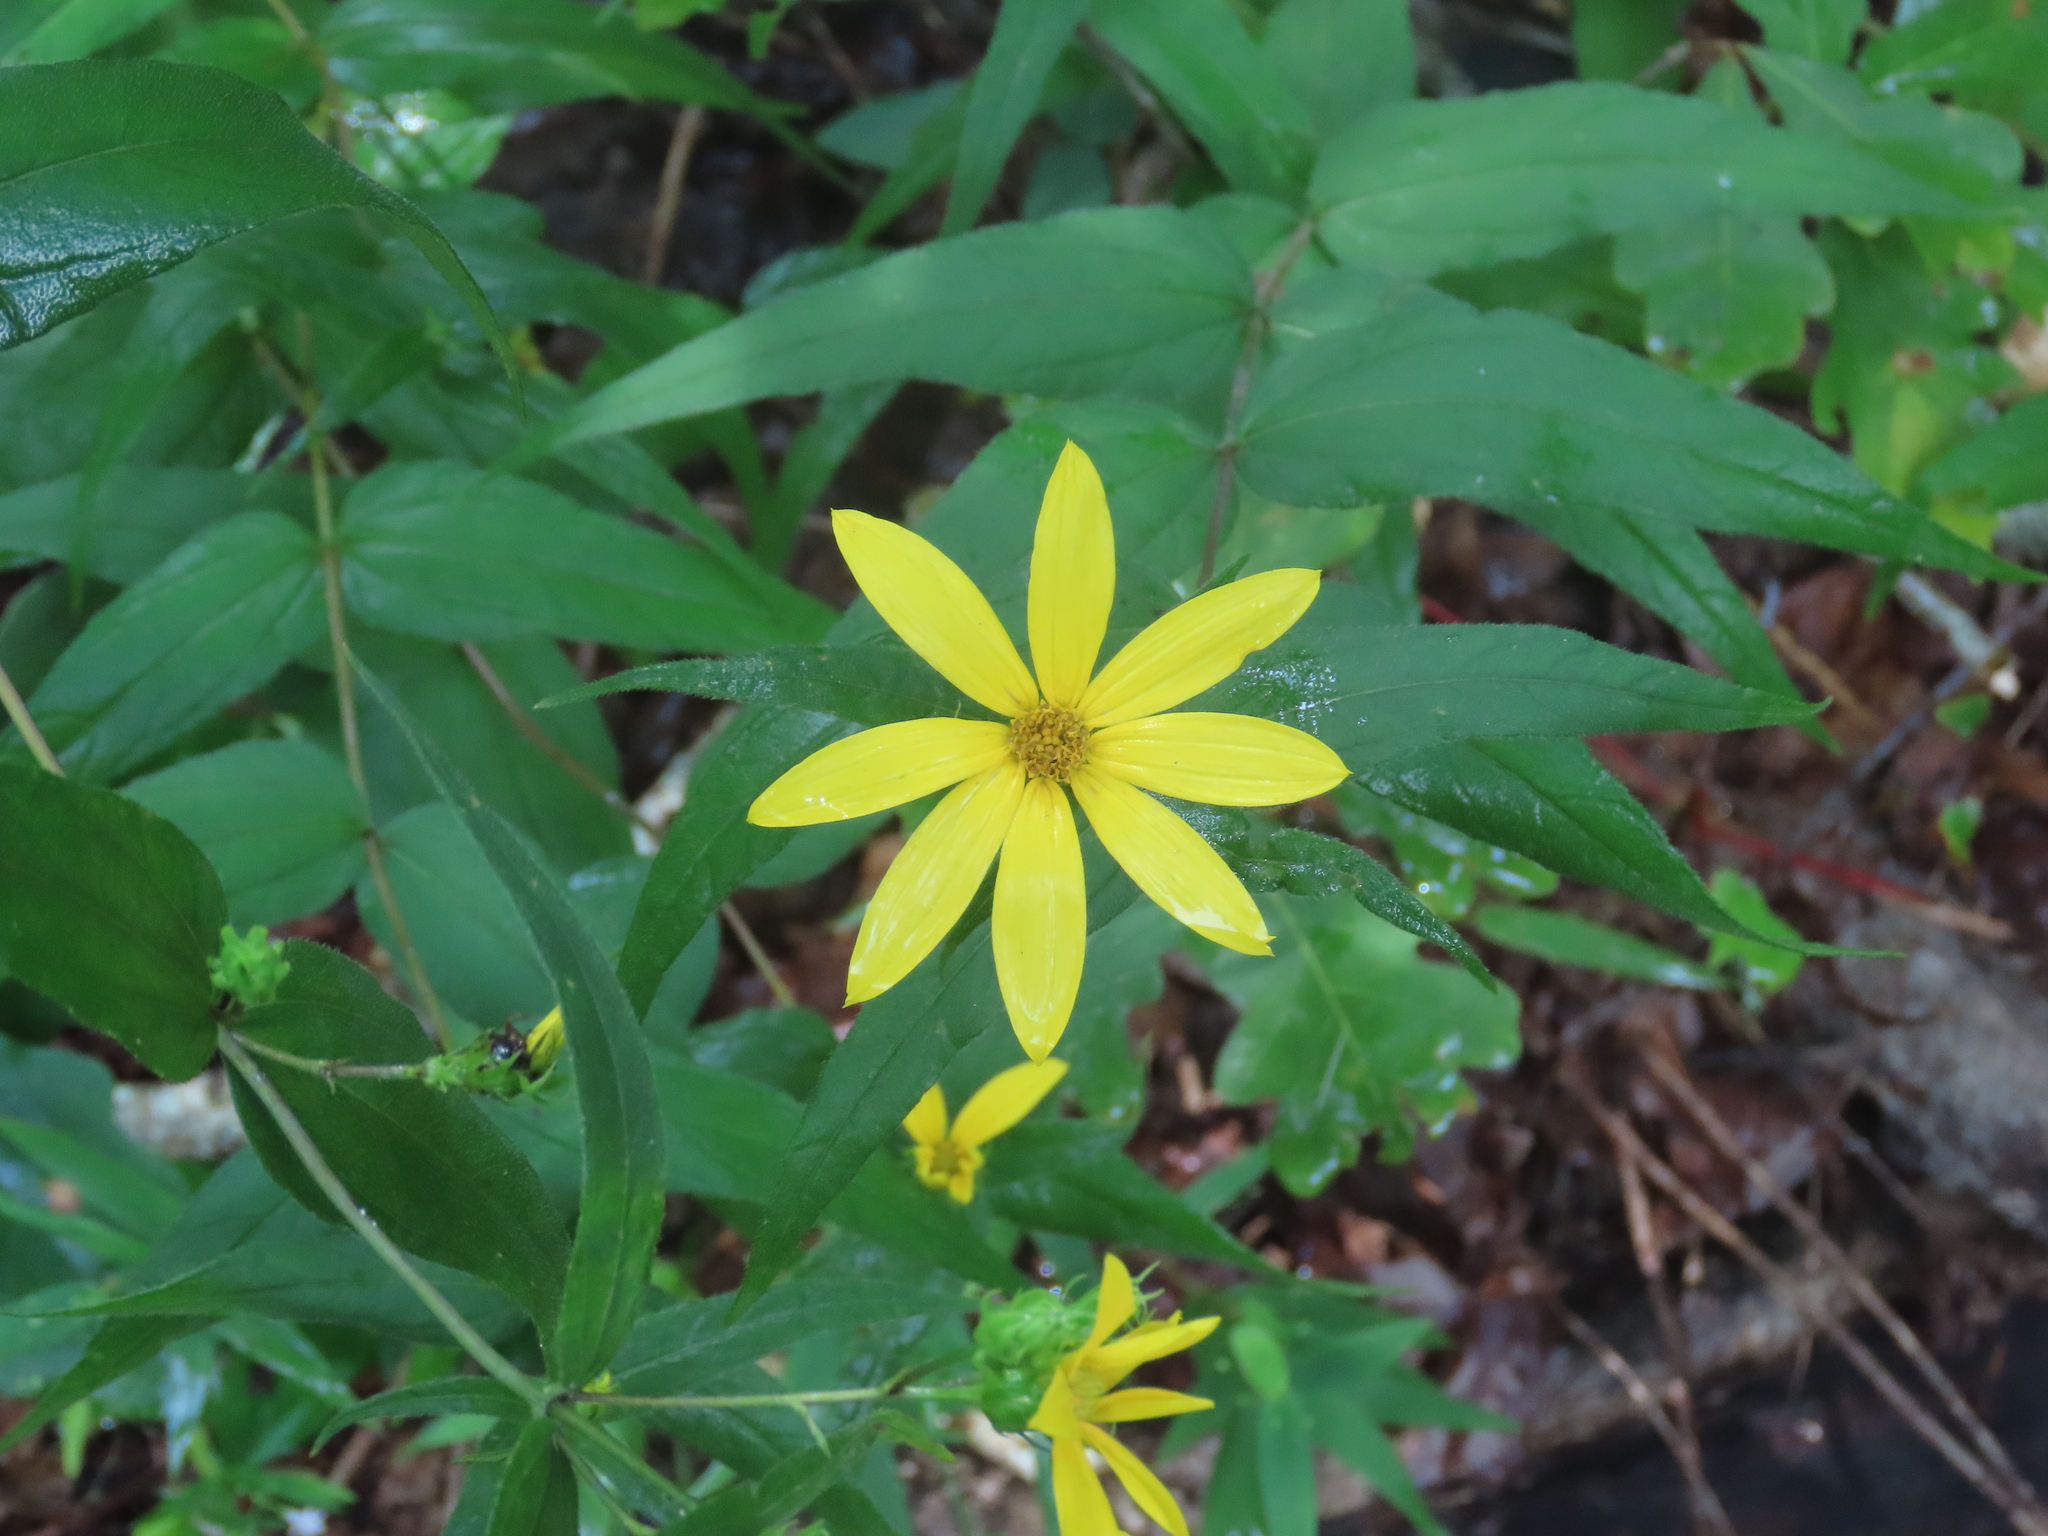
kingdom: Plantae
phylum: Tracheophyta
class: Magnoliopsida
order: Asterales
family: Asteraceae
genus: Helianthus
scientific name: Helianthus divaricatus
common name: Divergent sunflower
